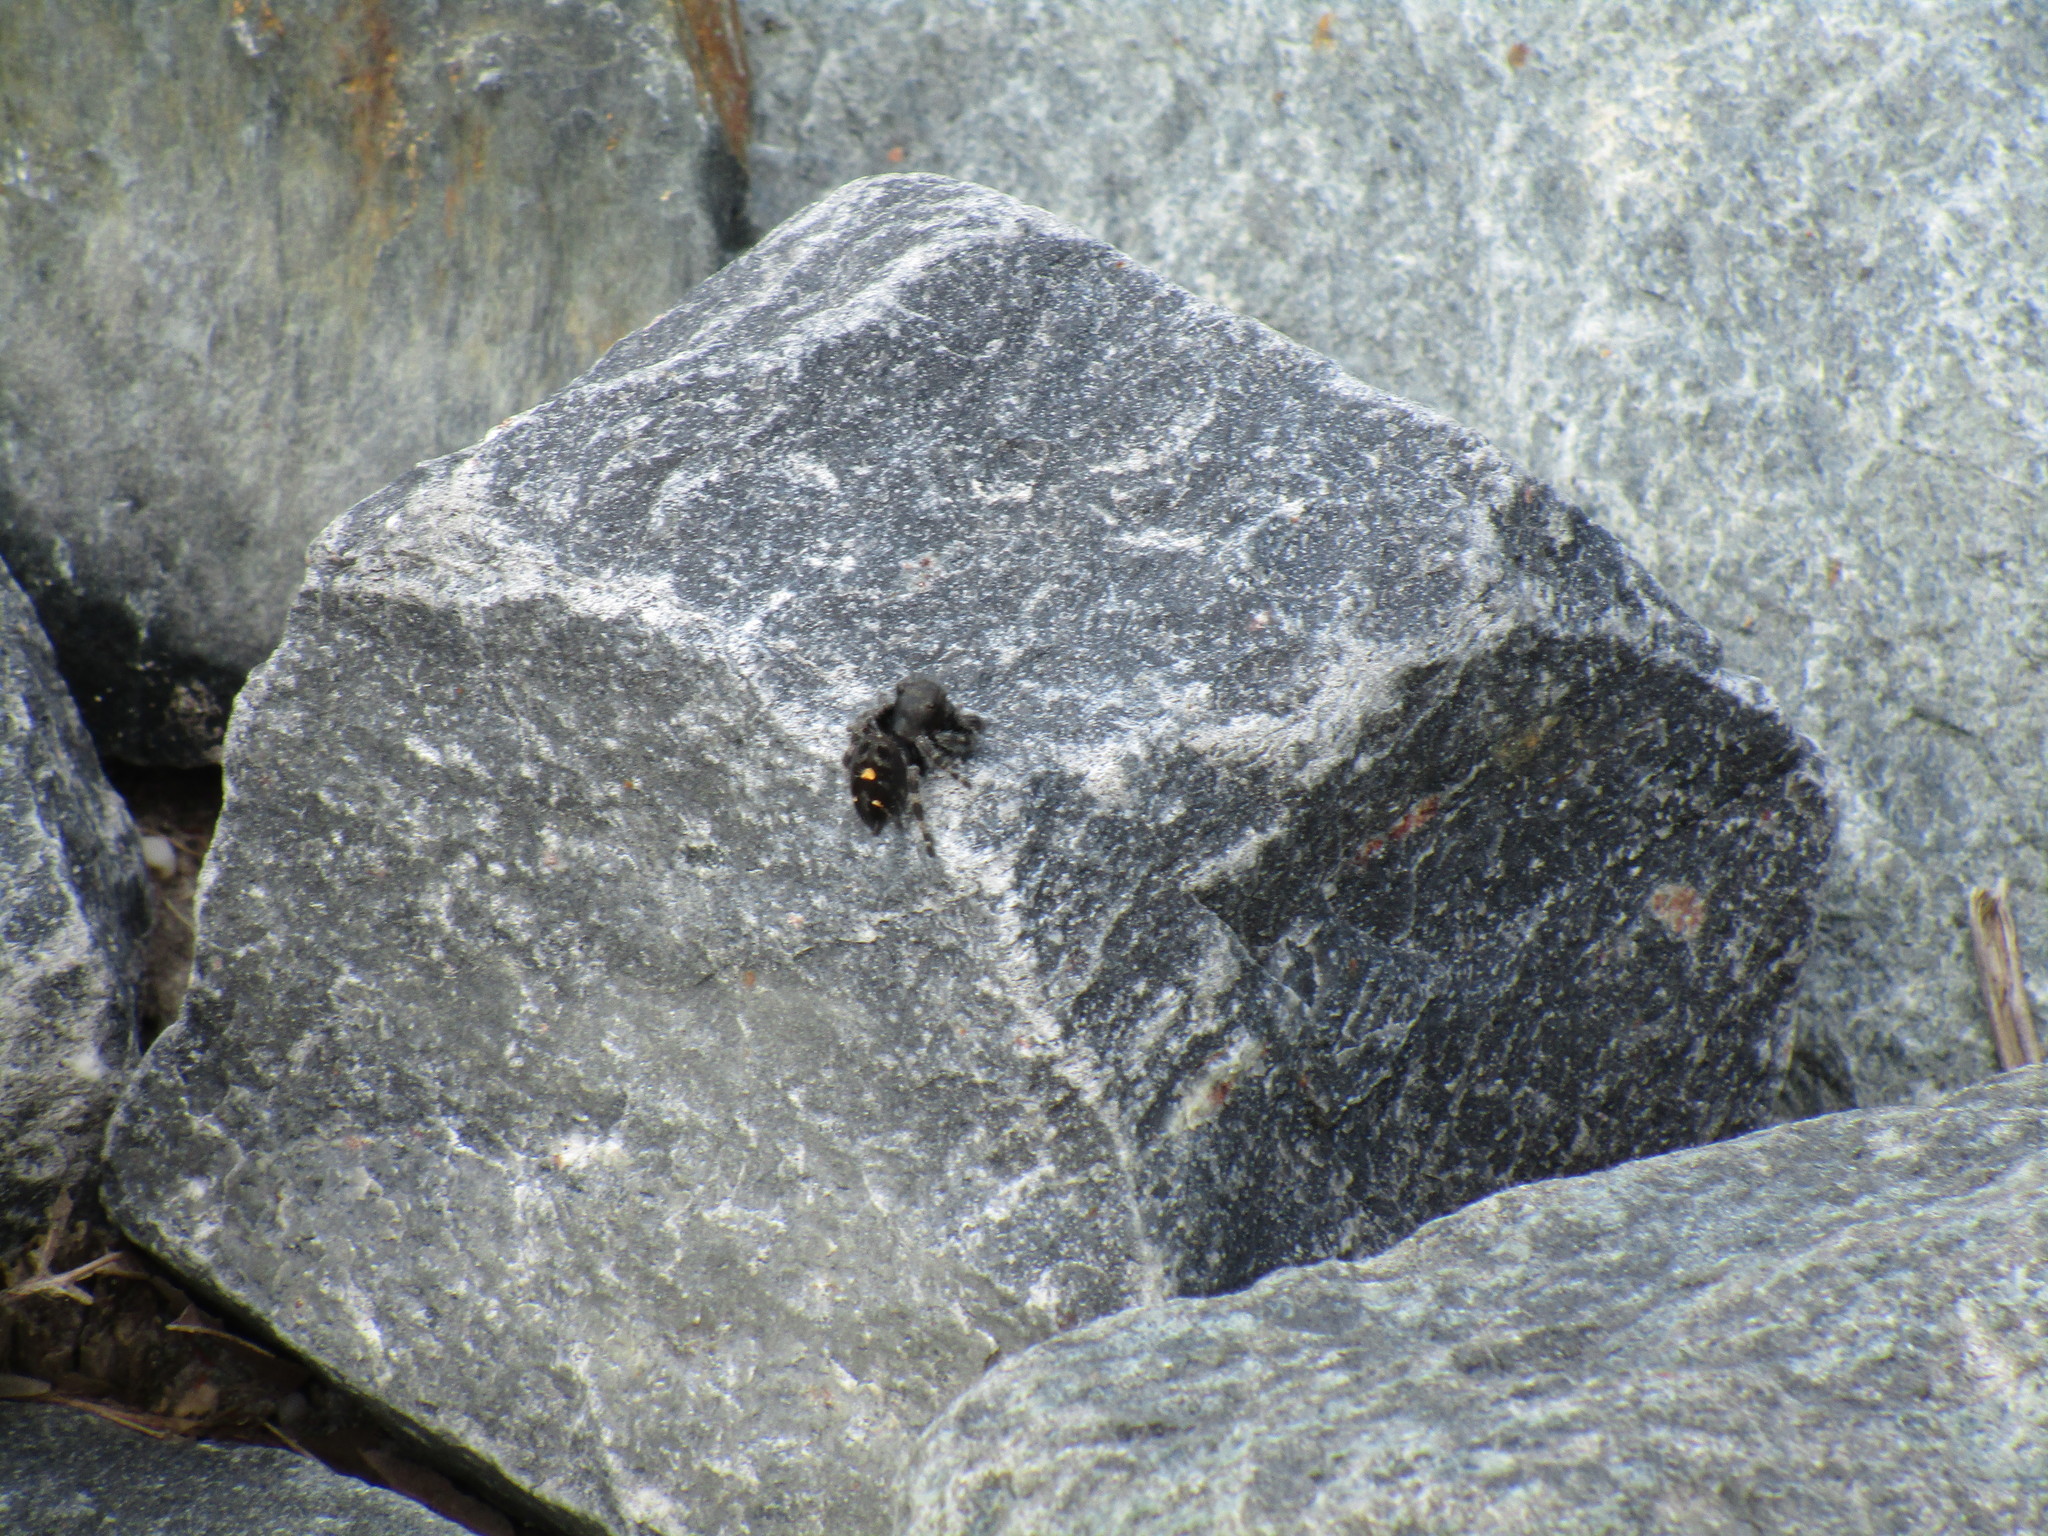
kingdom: Animalia
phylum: Arthropoda
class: Arachnida
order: Araneae
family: Salticidae
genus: Phidippus
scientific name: Phidippus audax
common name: Bold jumper
